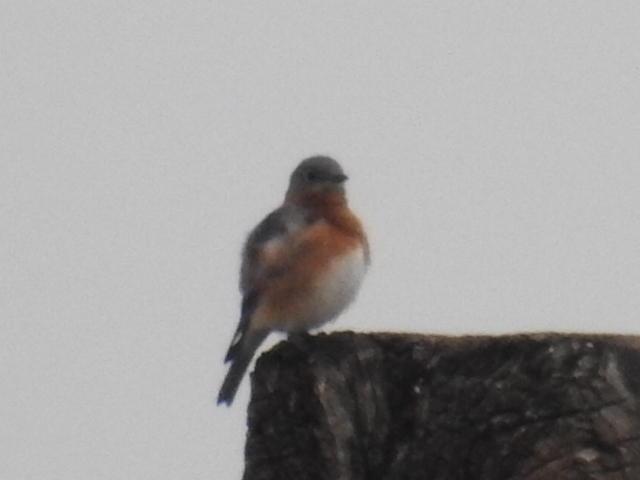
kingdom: Animalia
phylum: Chordata
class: Aves
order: Passeriformes
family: Turdidae
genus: Sialia
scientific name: Sialia sialis
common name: Eastern bluebird
